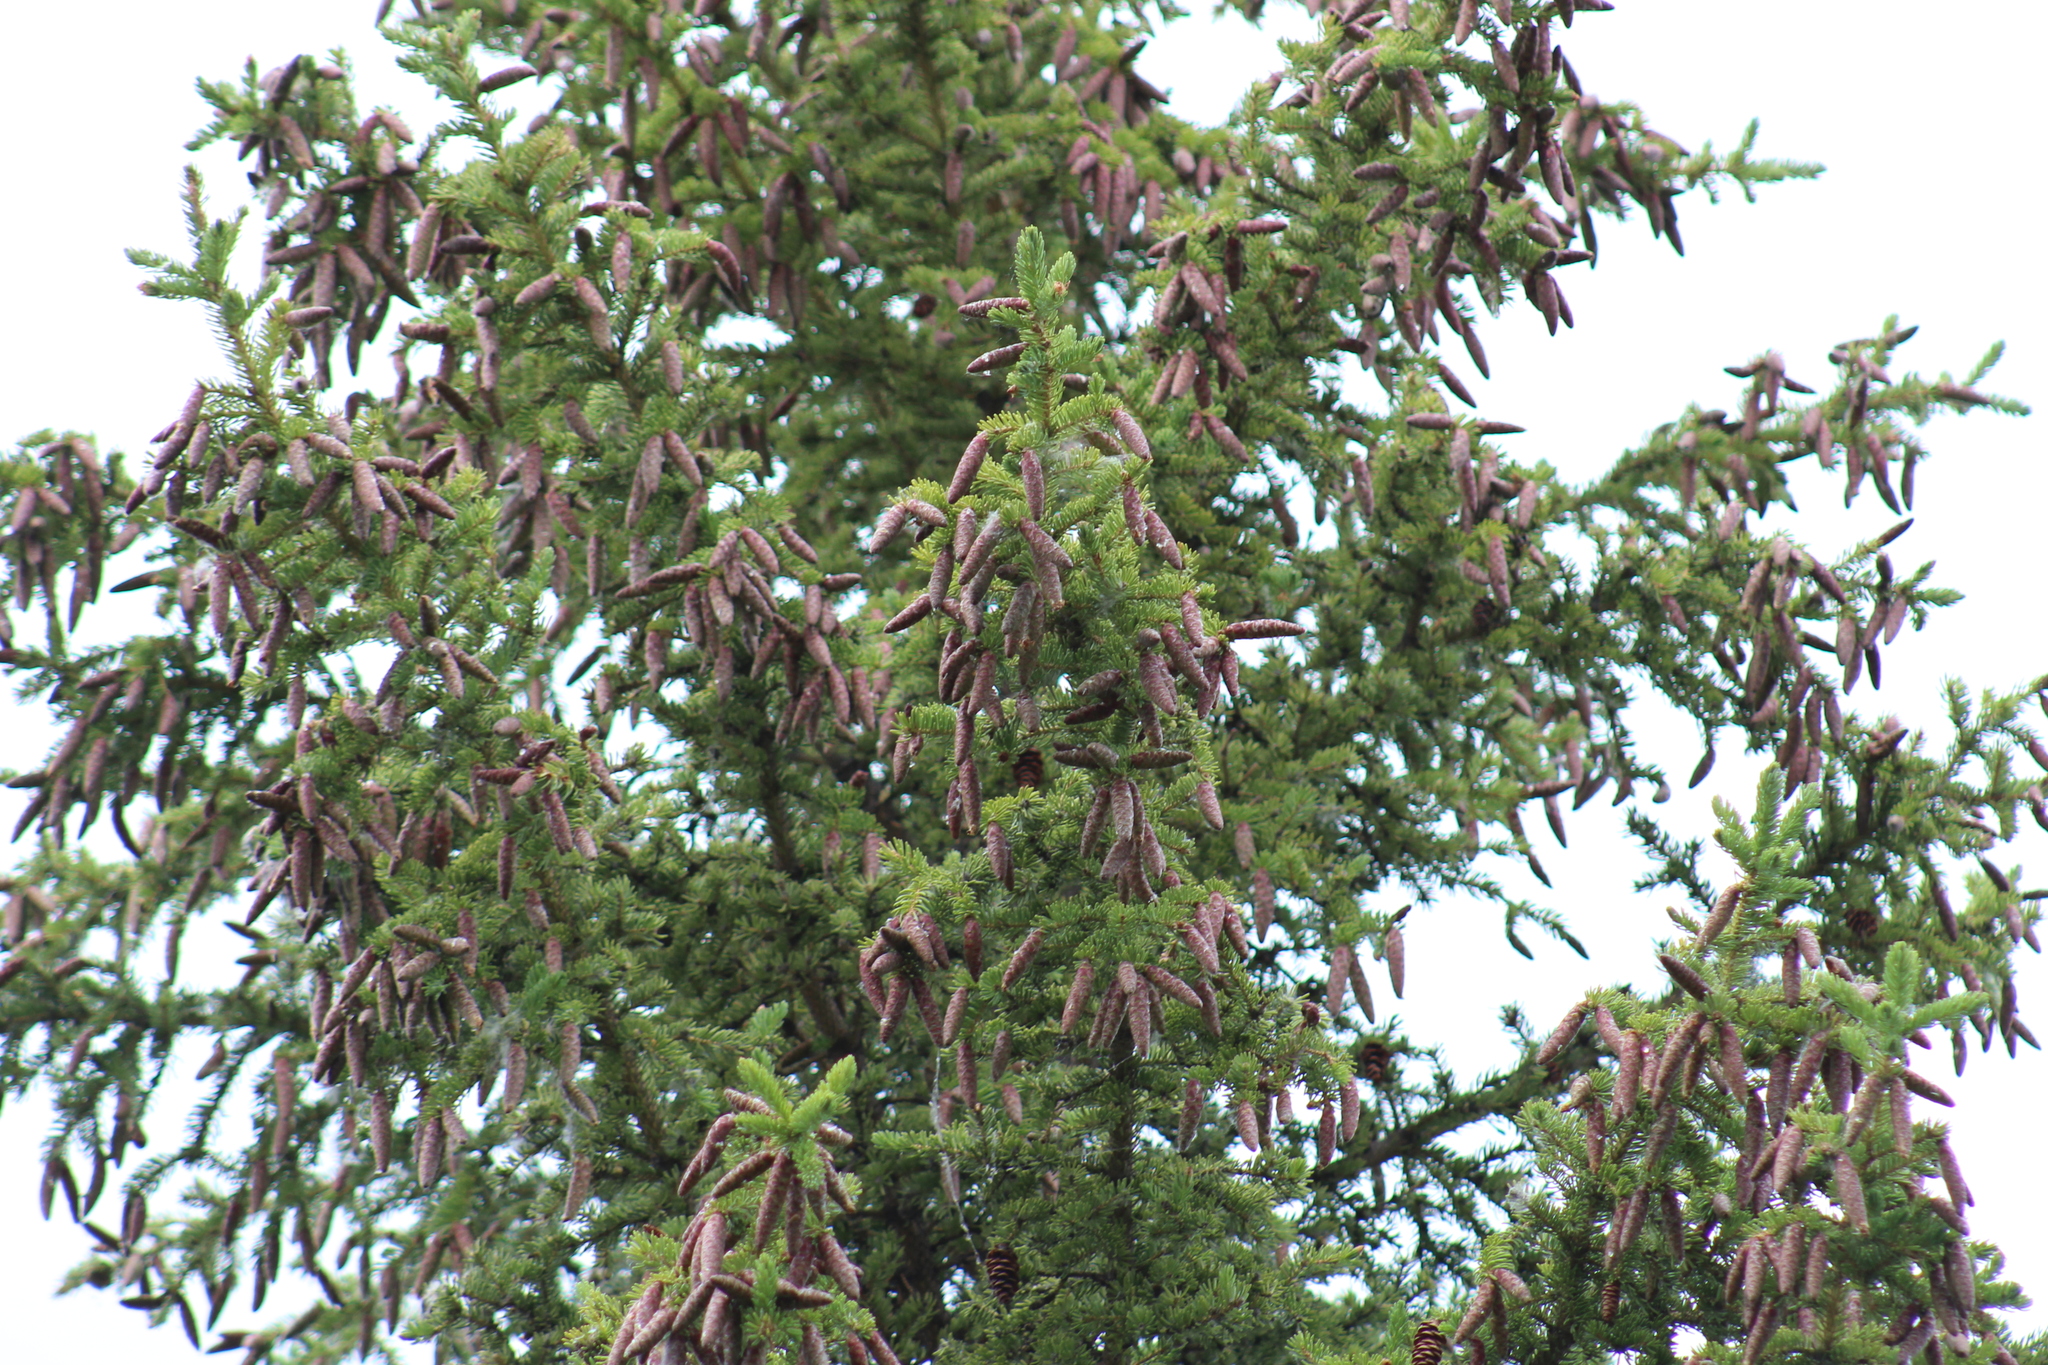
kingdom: Plantae
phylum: Tracheophyta
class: Pinopsida
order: Pinales
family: Pinaceae
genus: Picea
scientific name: Picea glauca
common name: White spruce
